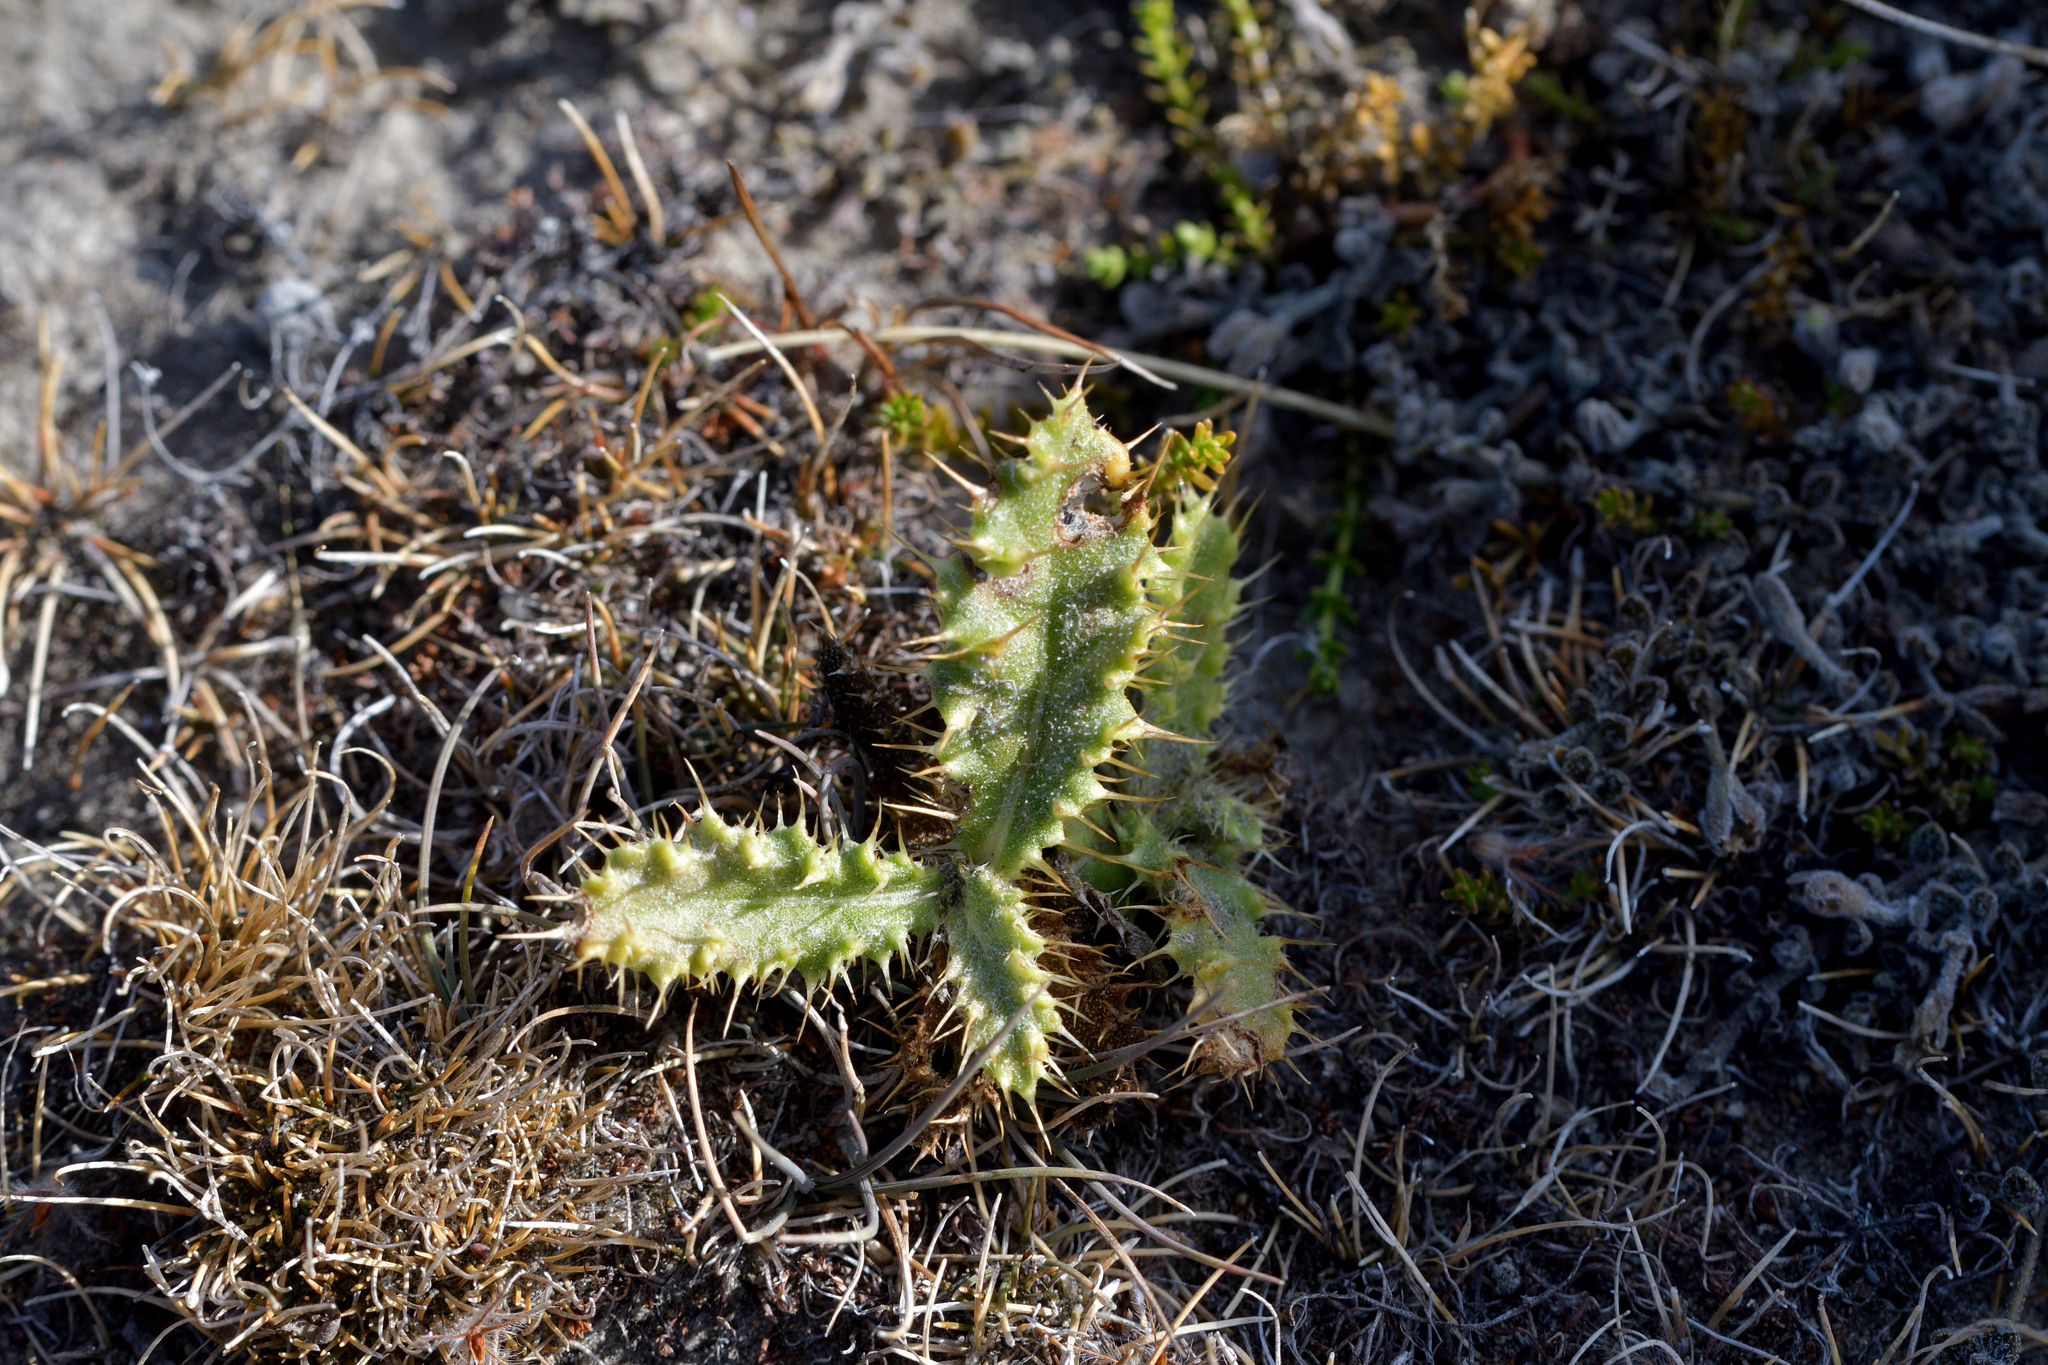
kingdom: Plantae
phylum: Tracheophyta
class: Magnoliopsida
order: Asterales
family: Asteraceae
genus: Cirsium
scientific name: Cirsium arvense
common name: Creeping thistle
